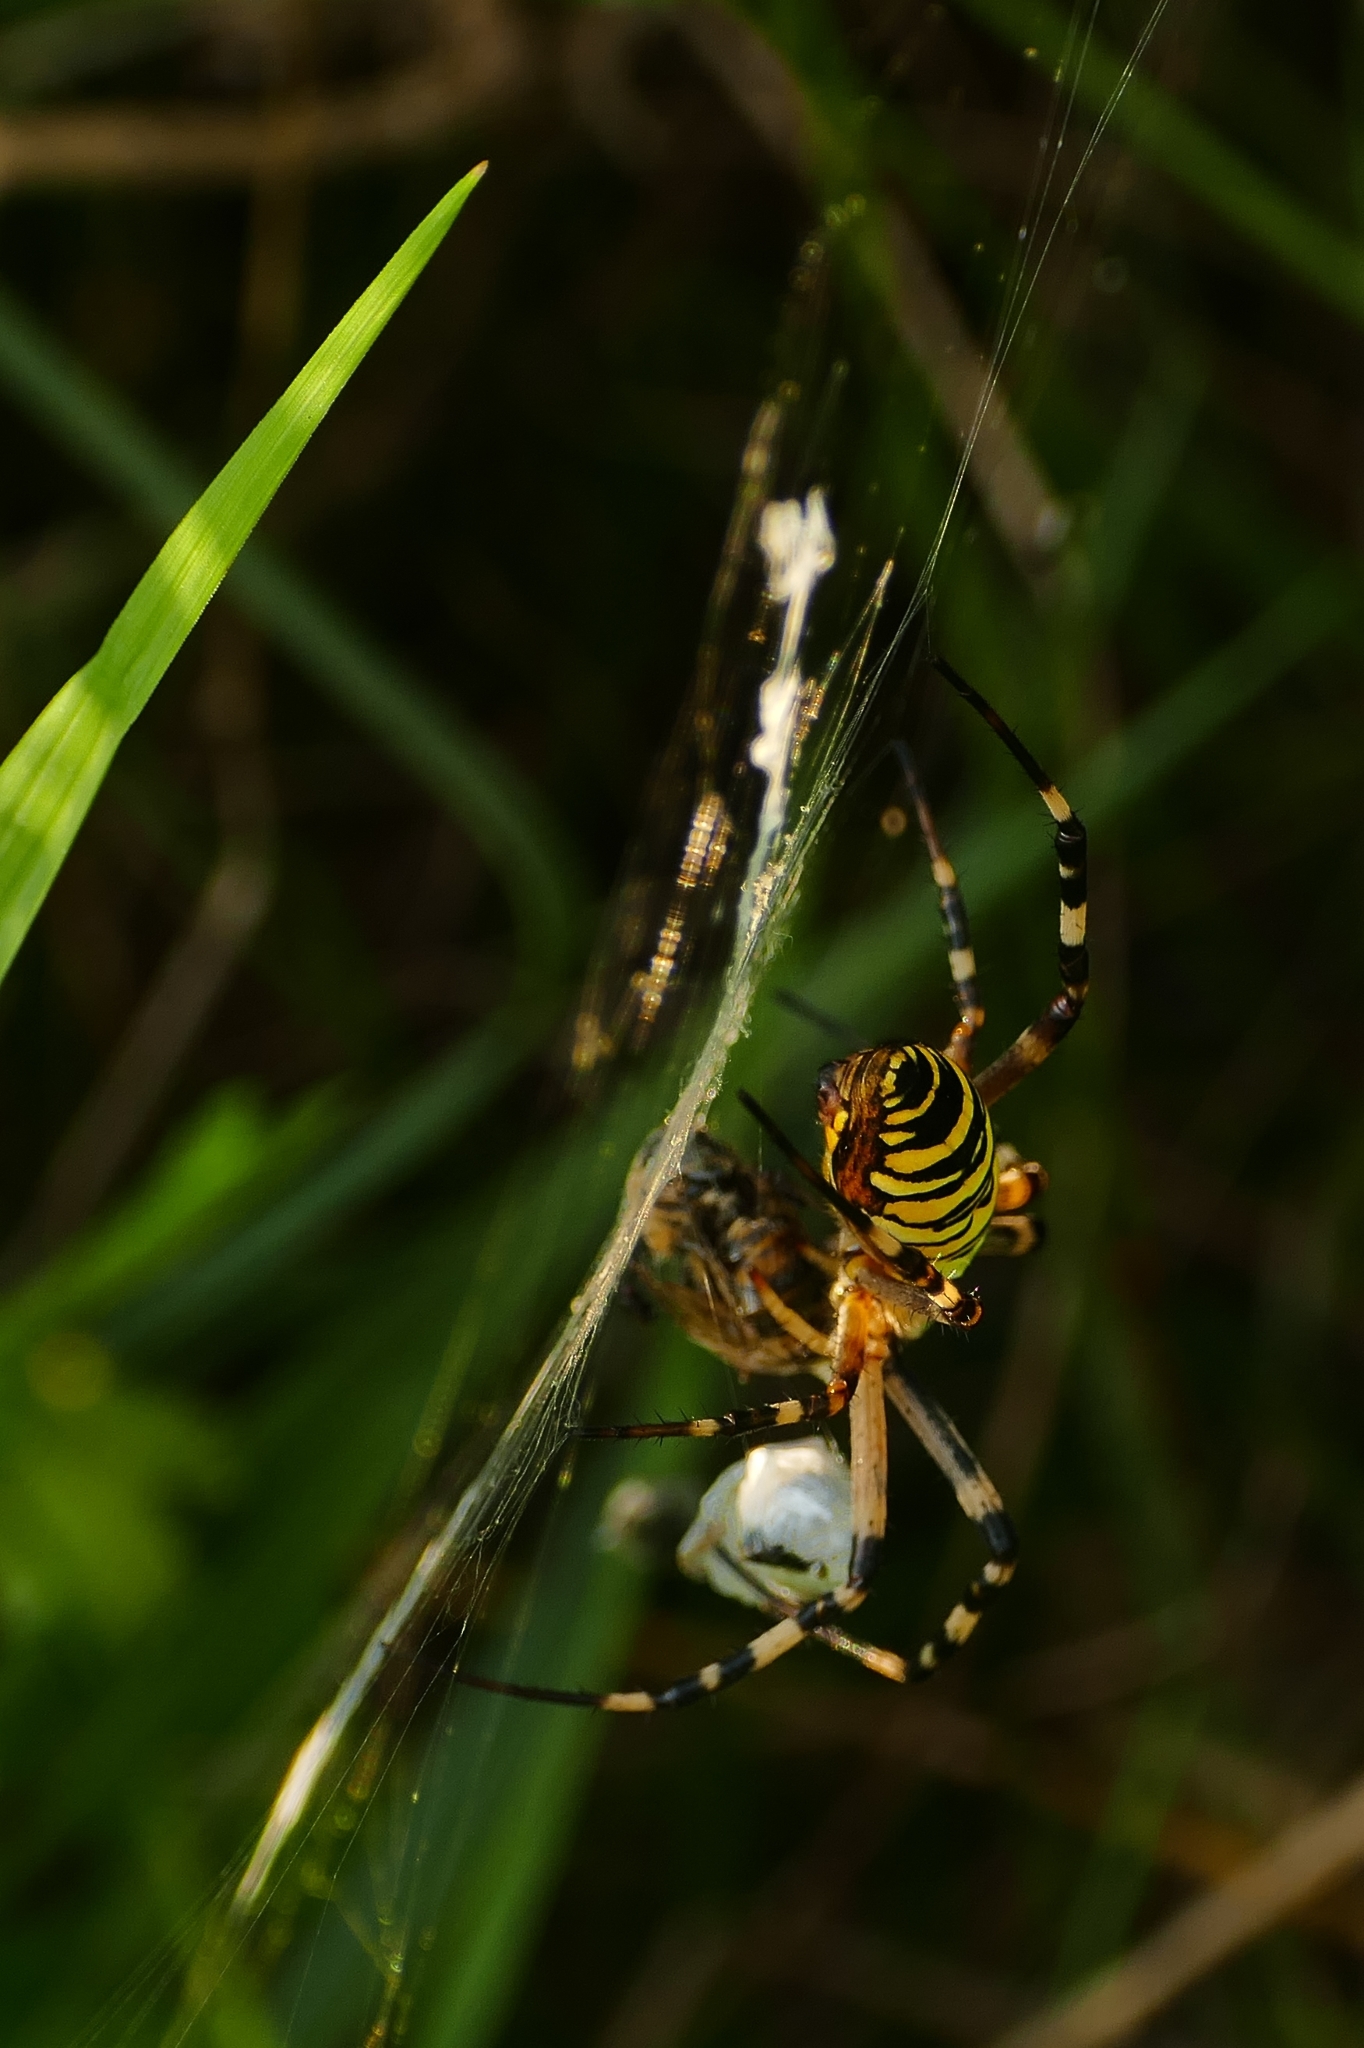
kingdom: Animalia
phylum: Arthropoda
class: Arachnida
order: Araneae
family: Araneidae
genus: Argiope
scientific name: Argiope bruennichi
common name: Wasp spider
